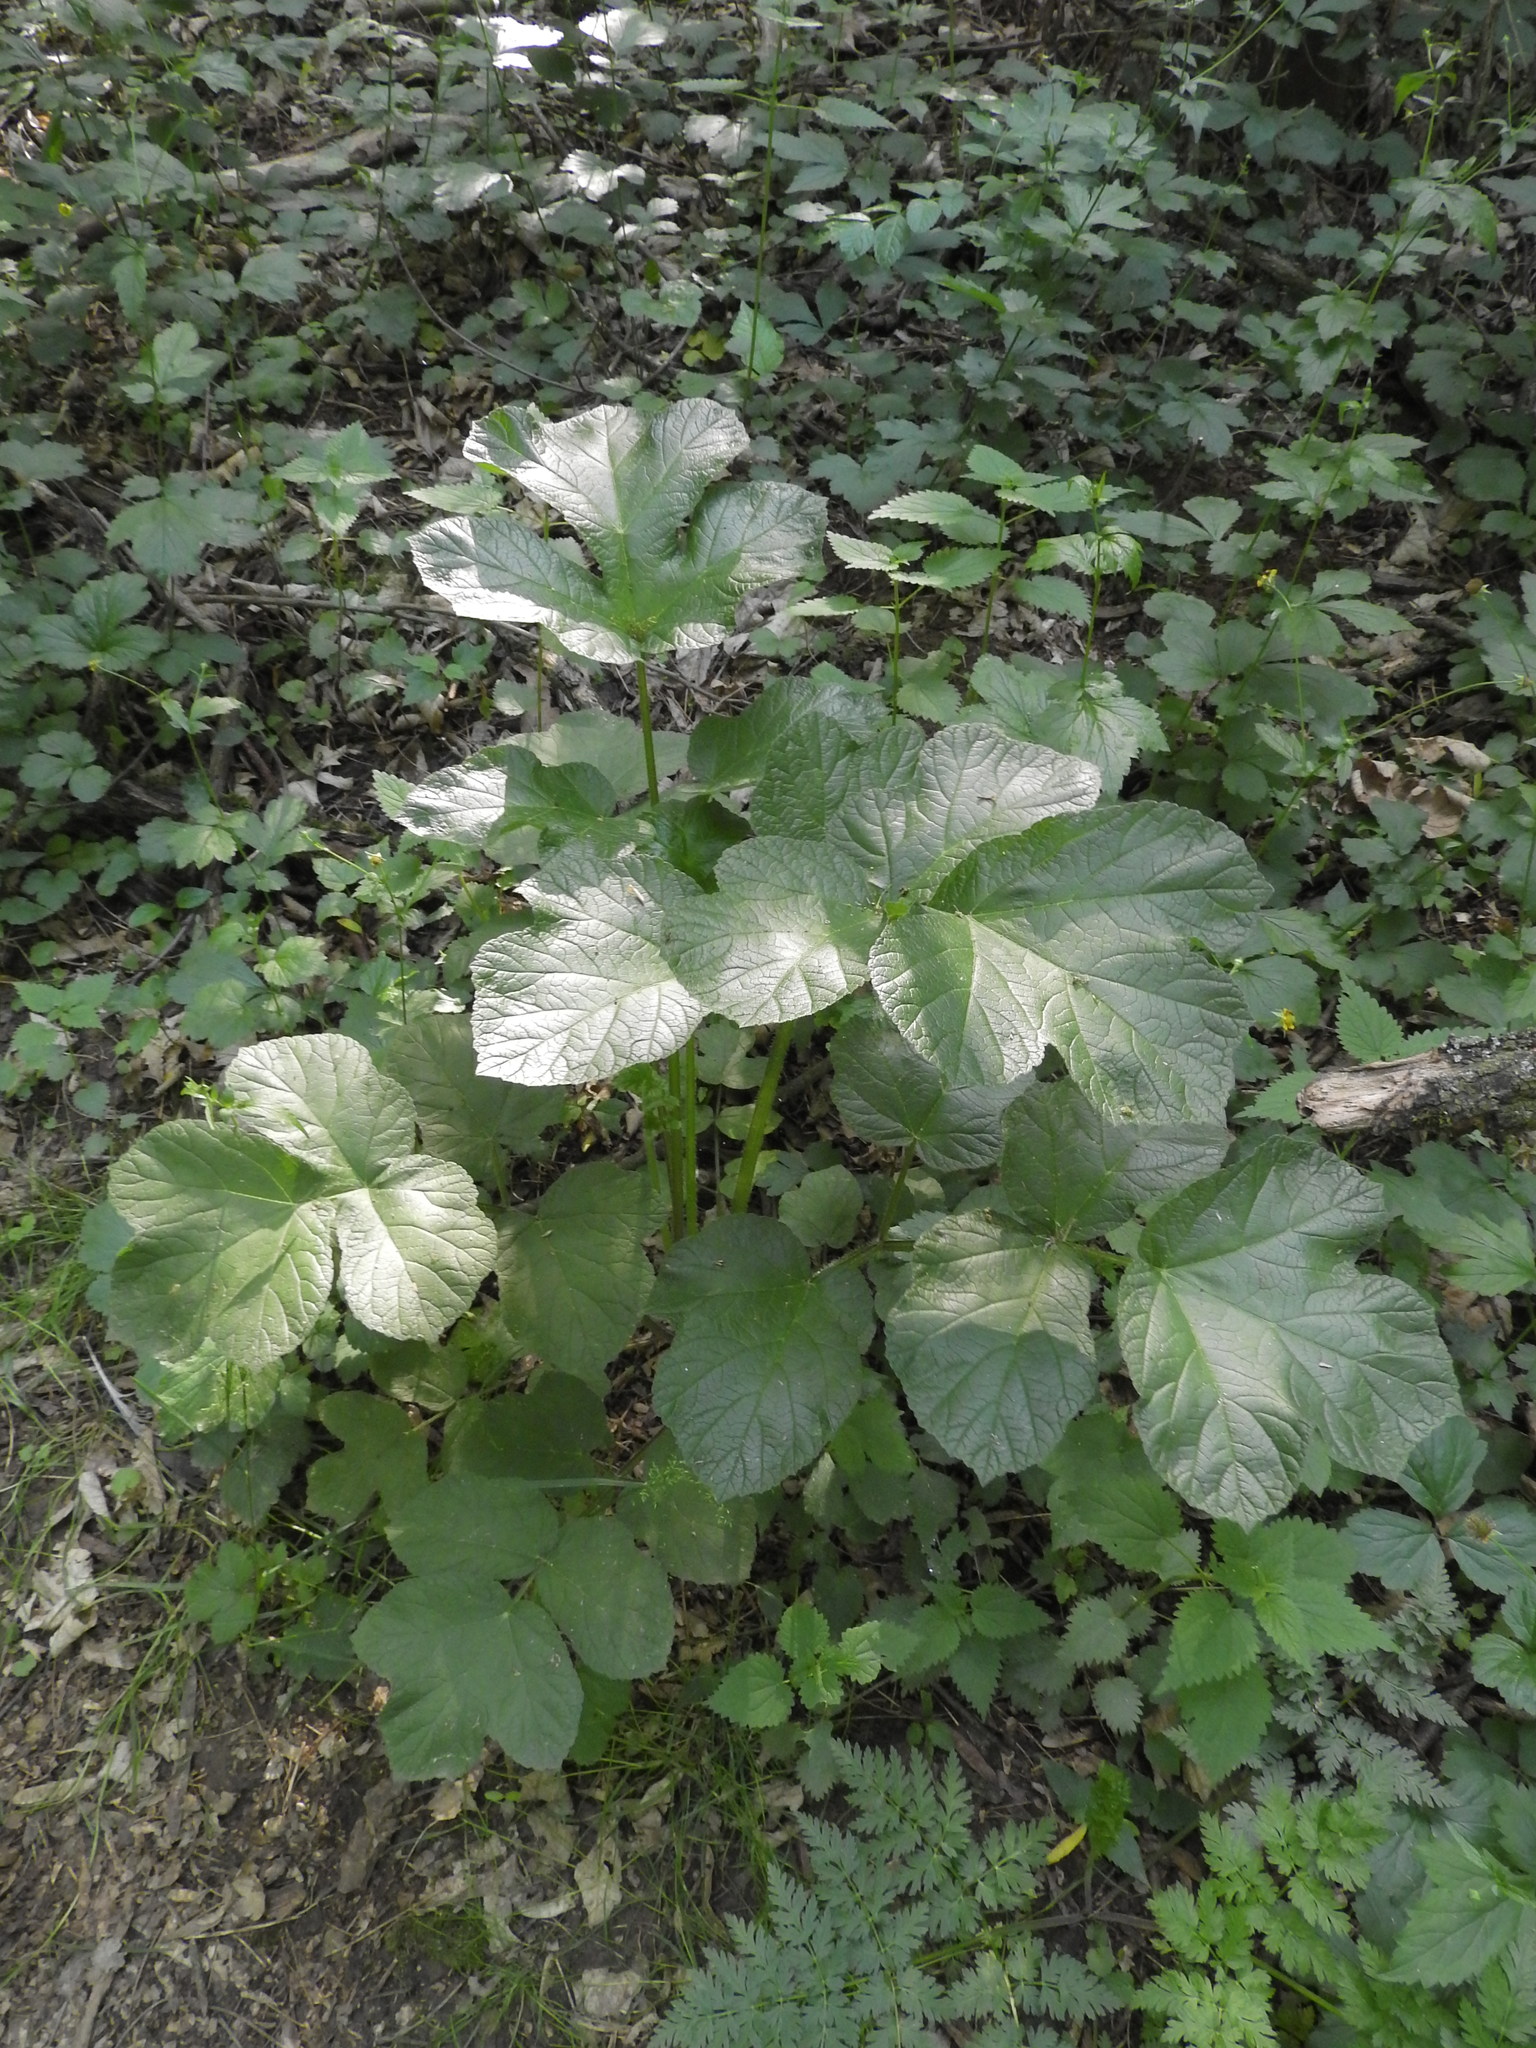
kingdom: Plantae
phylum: Tracheophyta
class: Magnoliopsida
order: Apiales
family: Apiaceae
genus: Heracleum
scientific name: Heracleum sphondylium
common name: Hogweed
